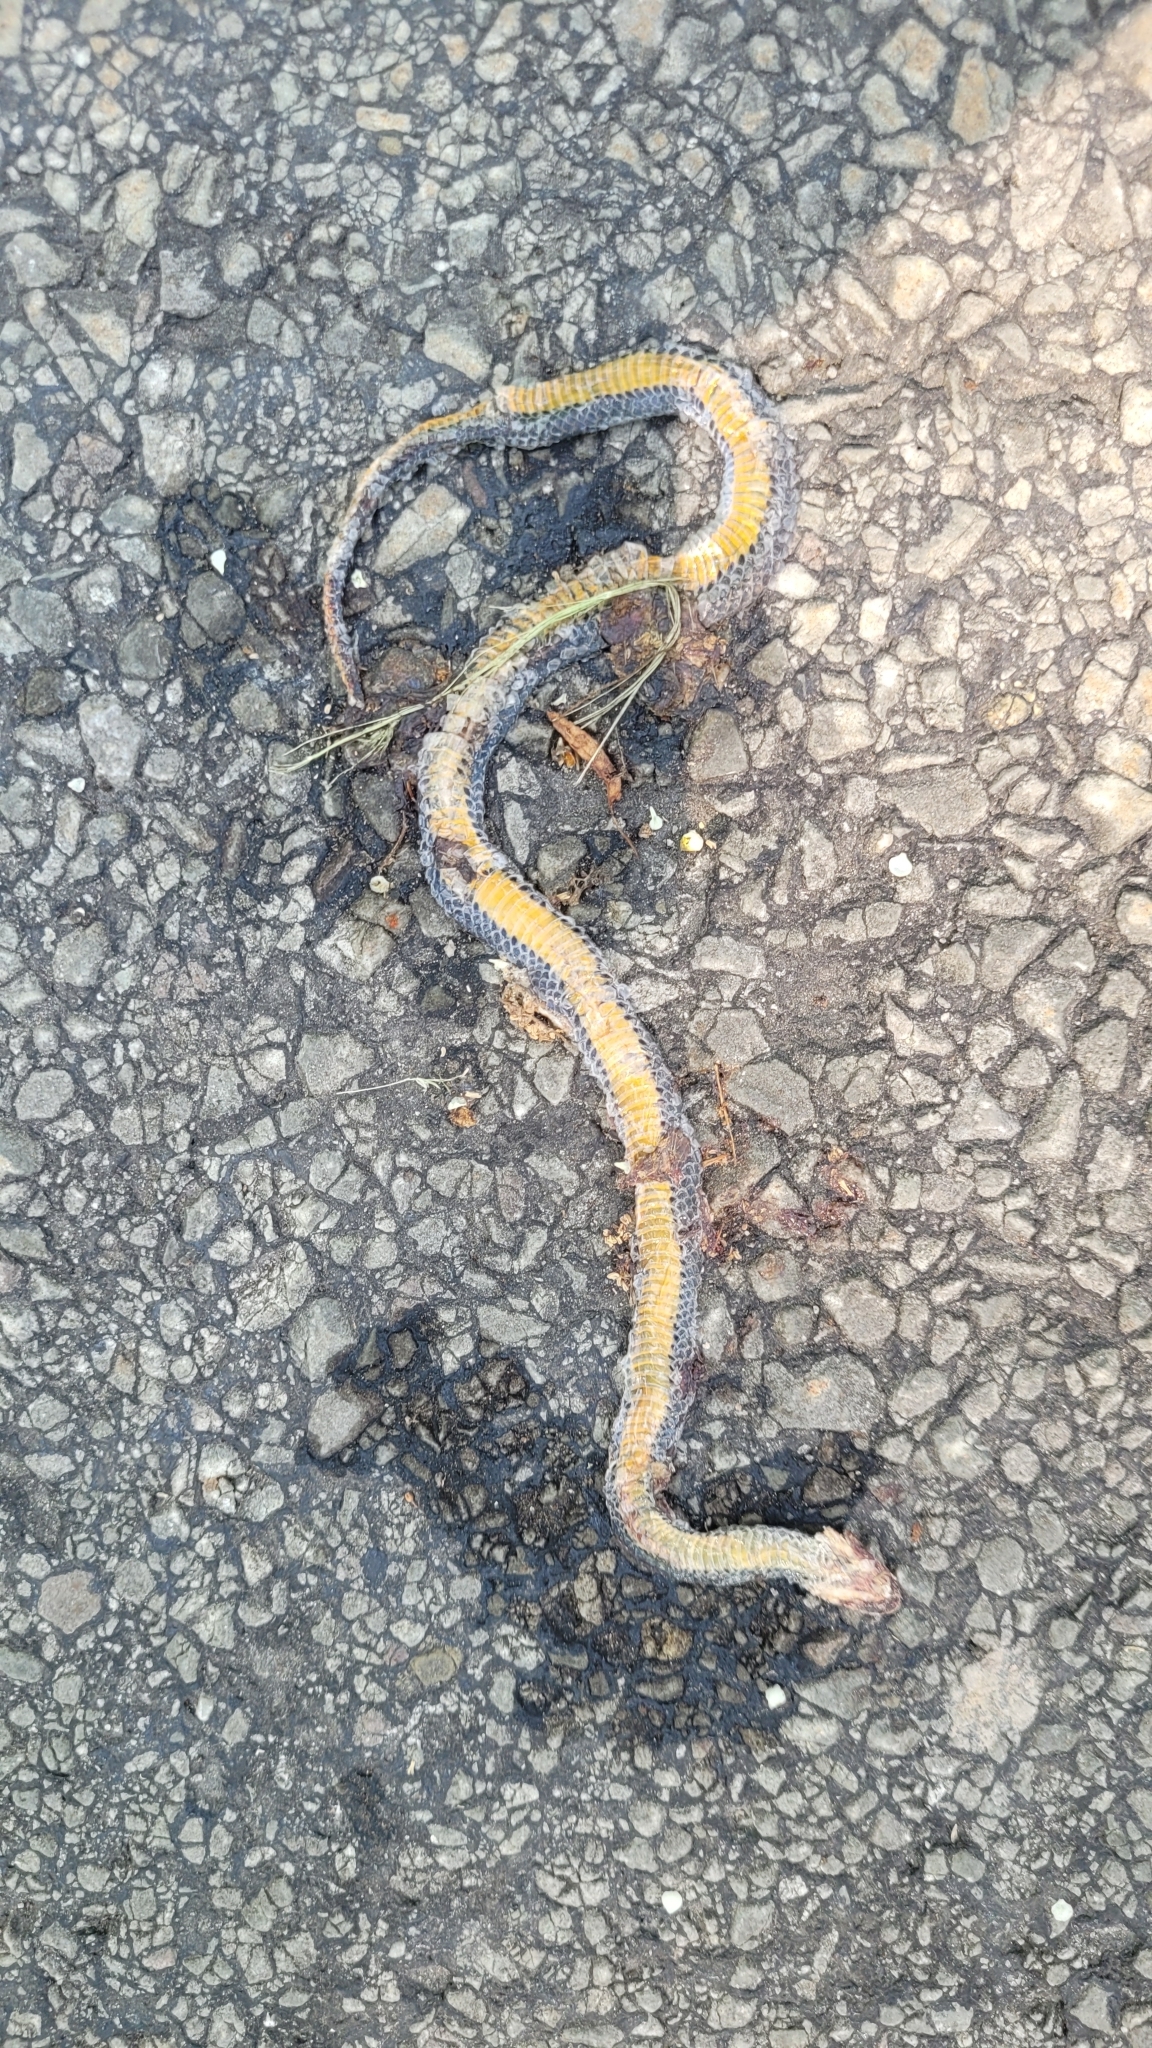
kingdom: Animalia
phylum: Chordata
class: Squamata
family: Colubridae
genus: Diadophis
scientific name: Diadophis punctatus
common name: Ringneck snake
